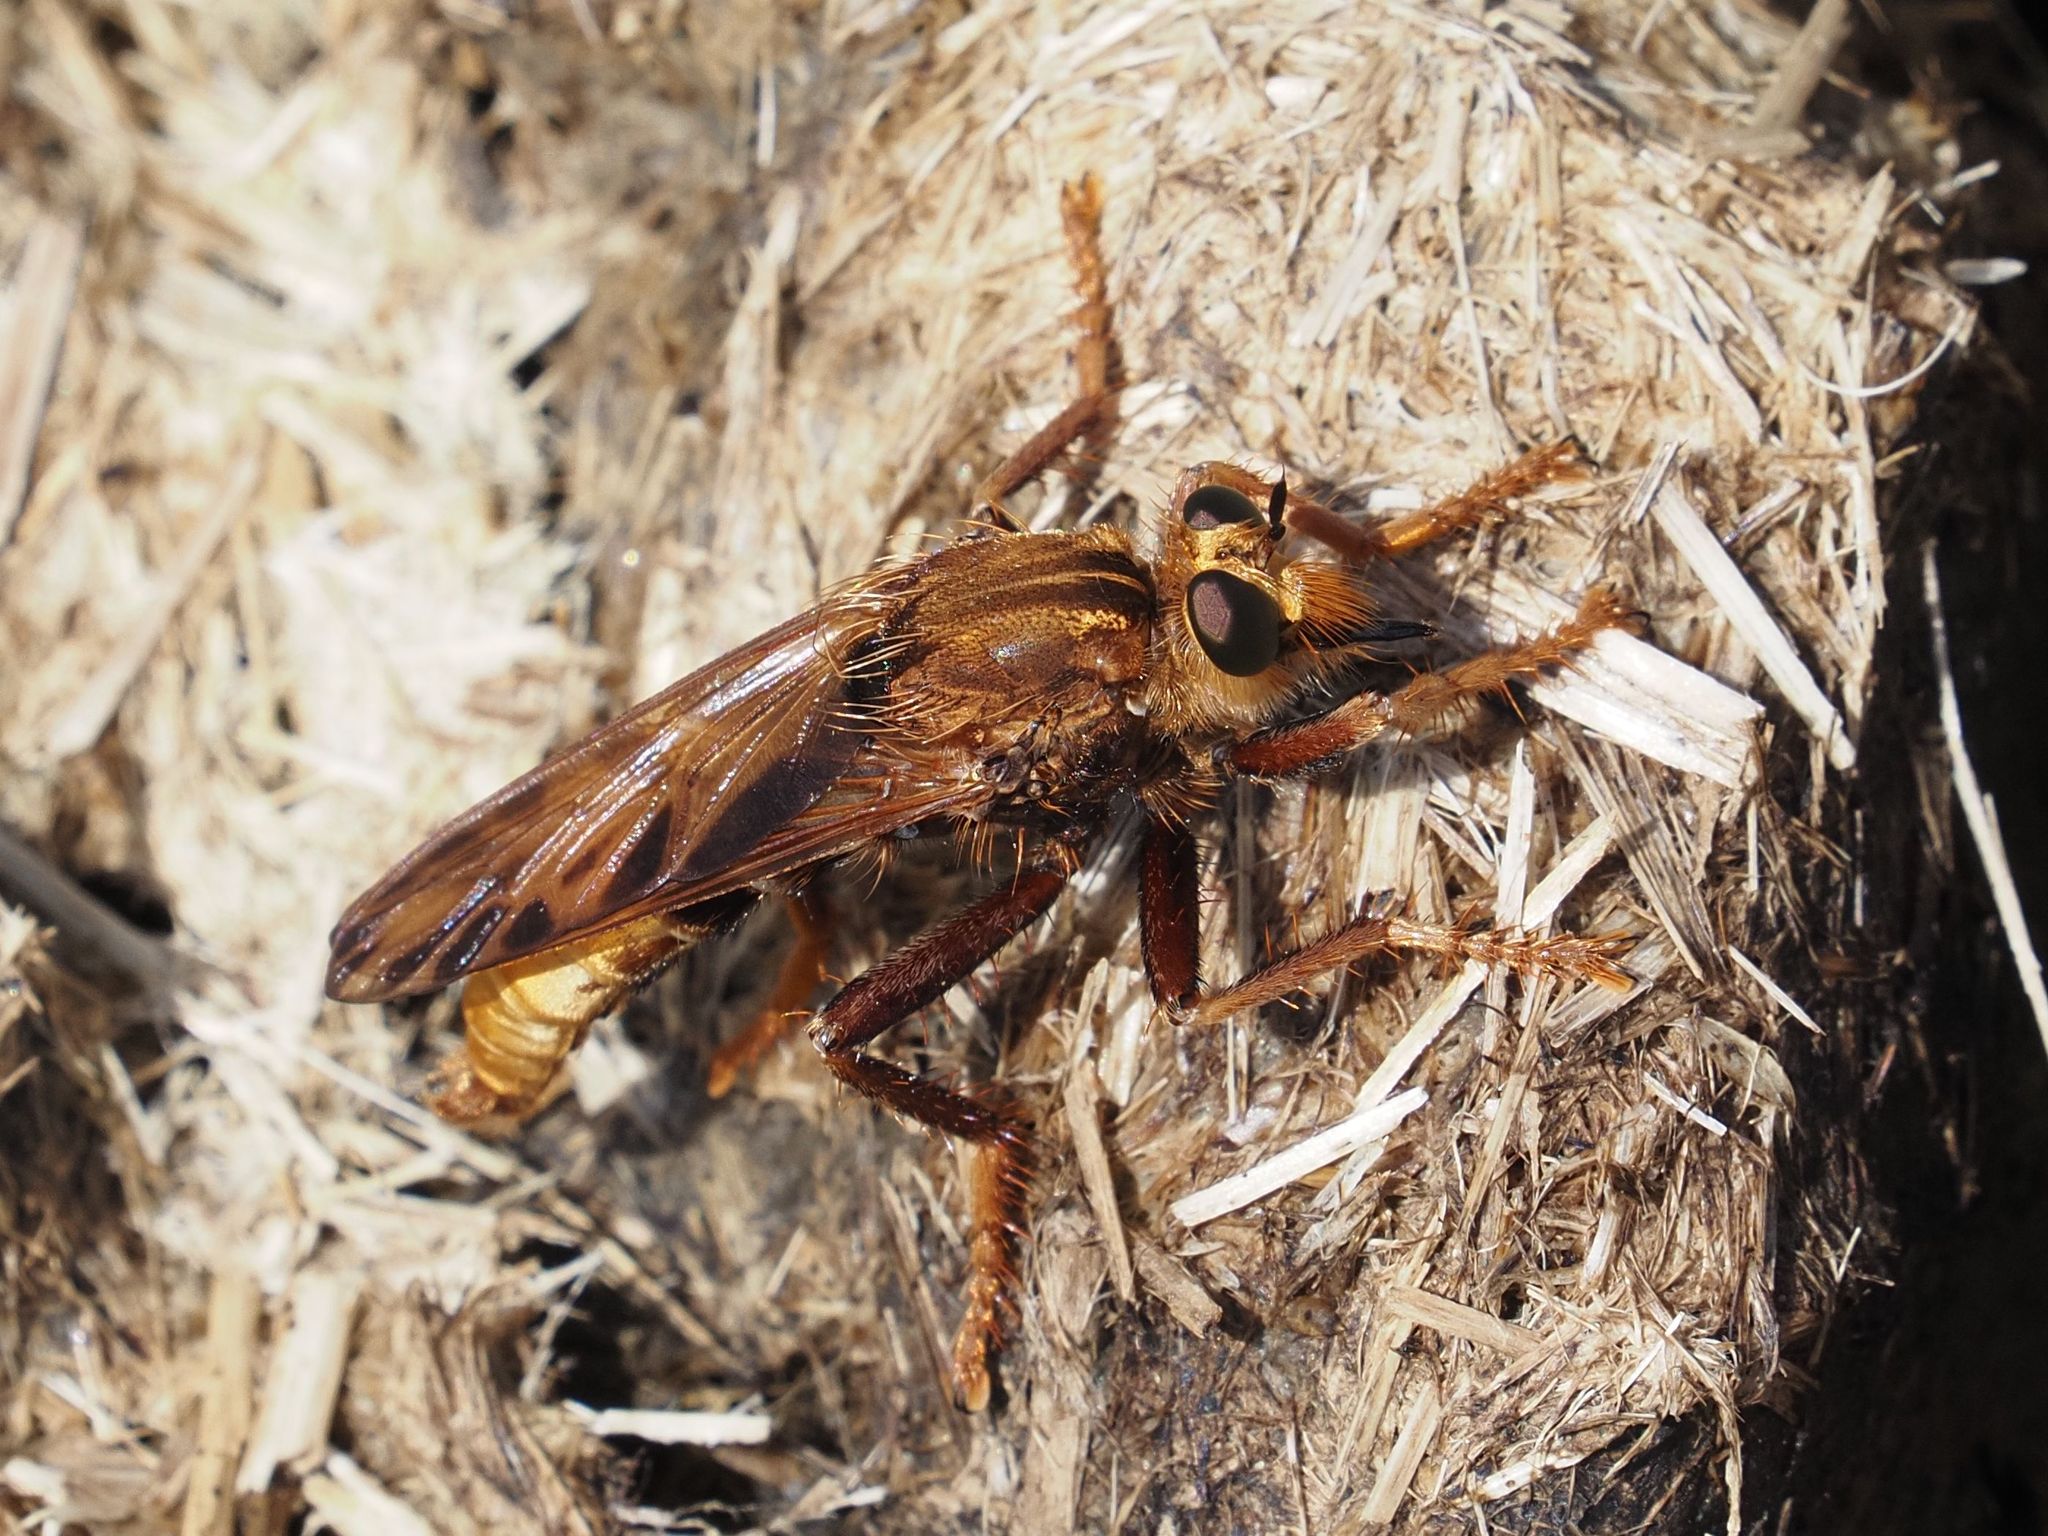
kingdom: Animalia
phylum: Arthropoda
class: Insecta
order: Diptera
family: Asilidae
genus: Asilus
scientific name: Asilus crabroniformis
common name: Hornet robberfly
